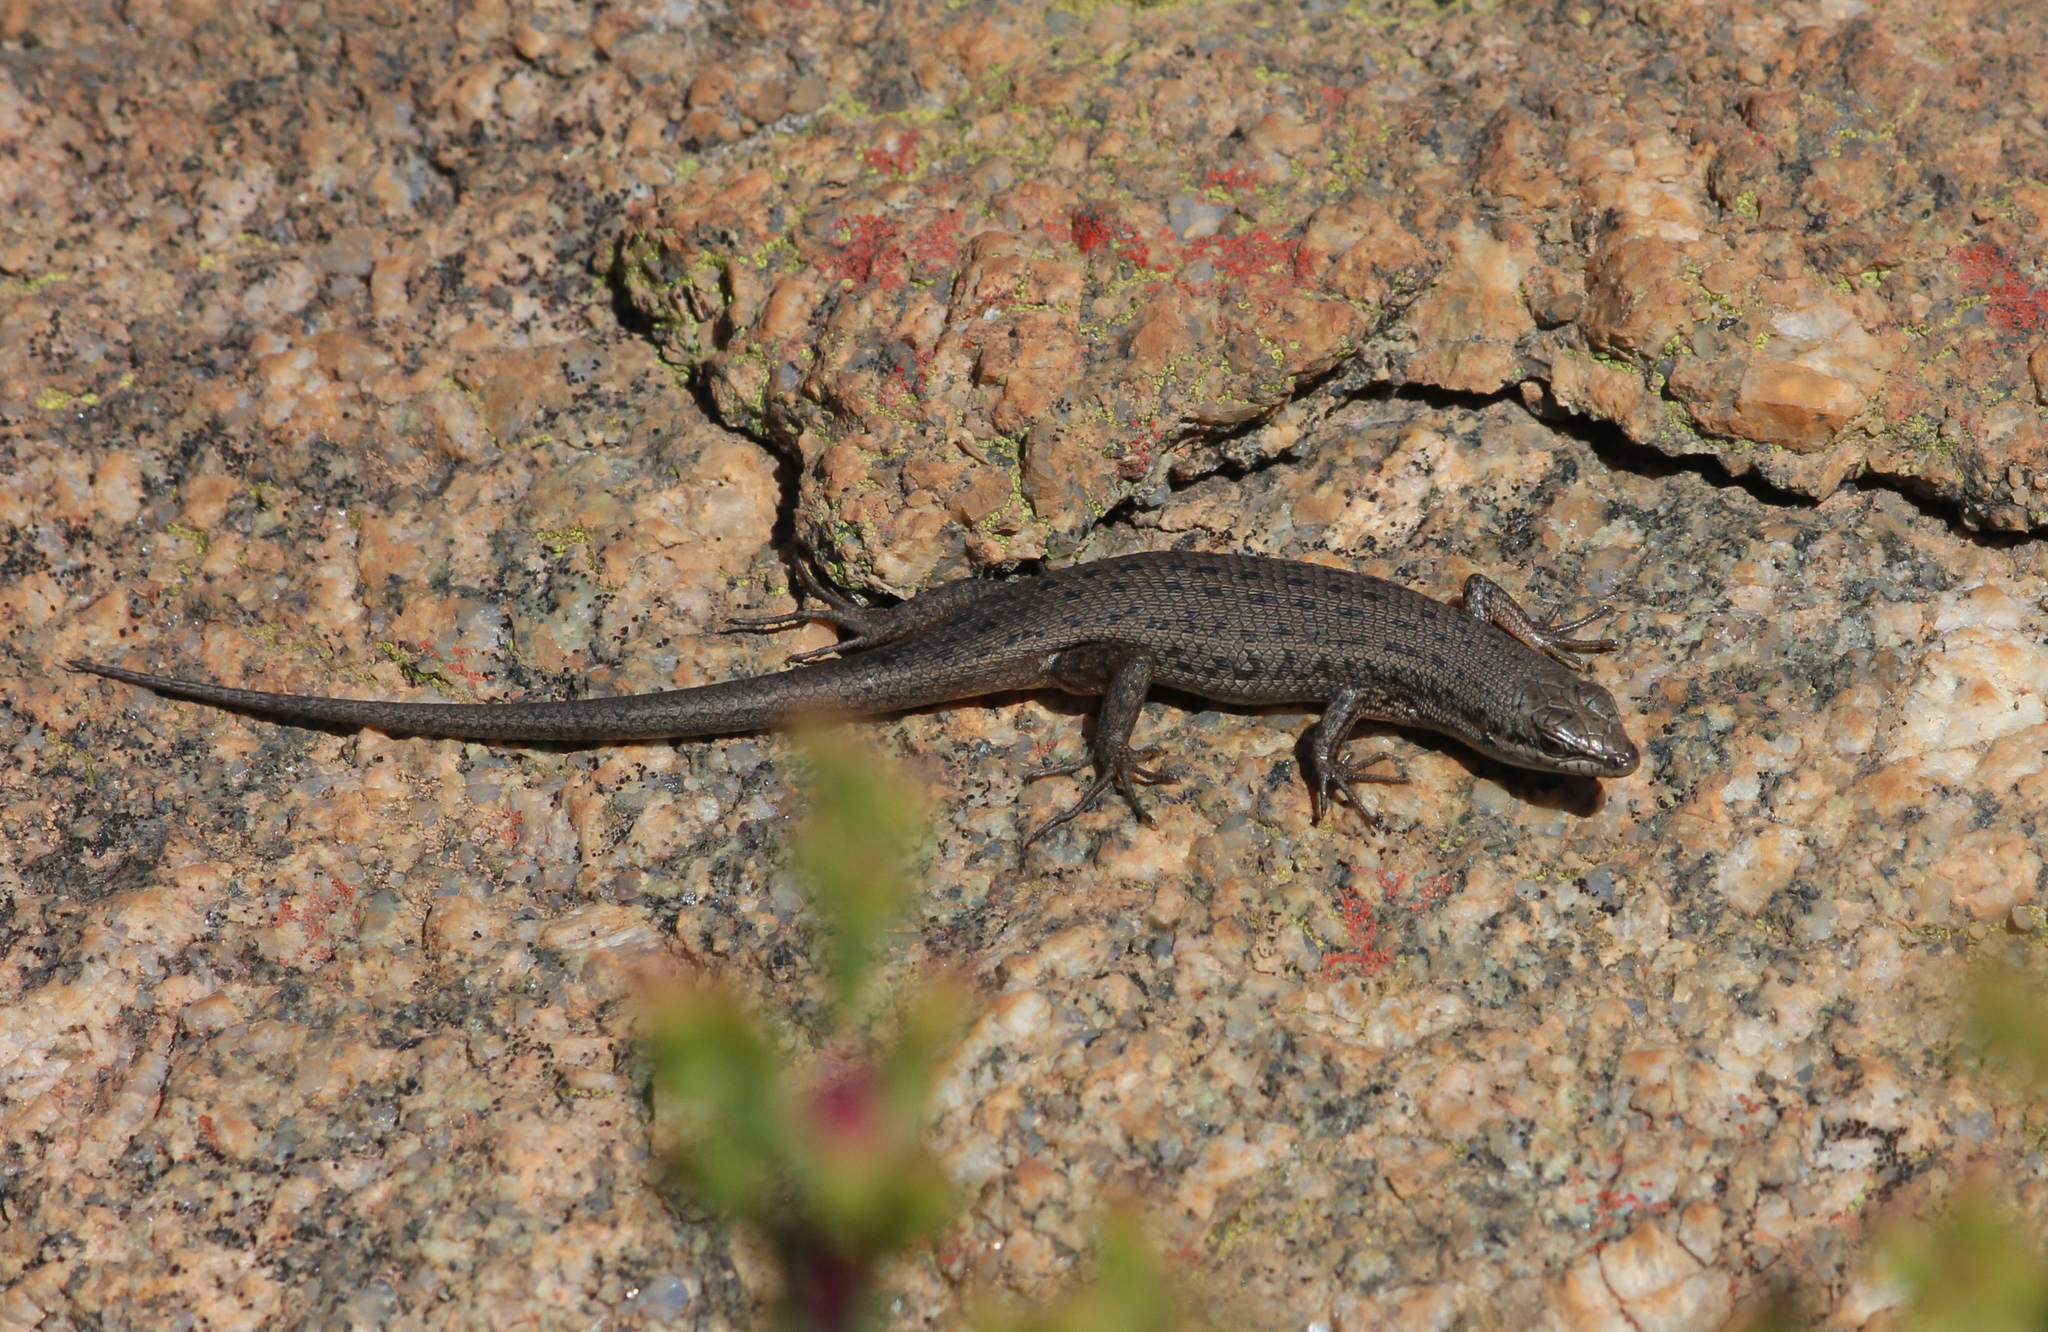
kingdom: Animalia
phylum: Chordata
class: Squamata
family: Scincidae
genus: Trachylepis
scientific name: Trachylepis variegata
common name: Variegated skink
